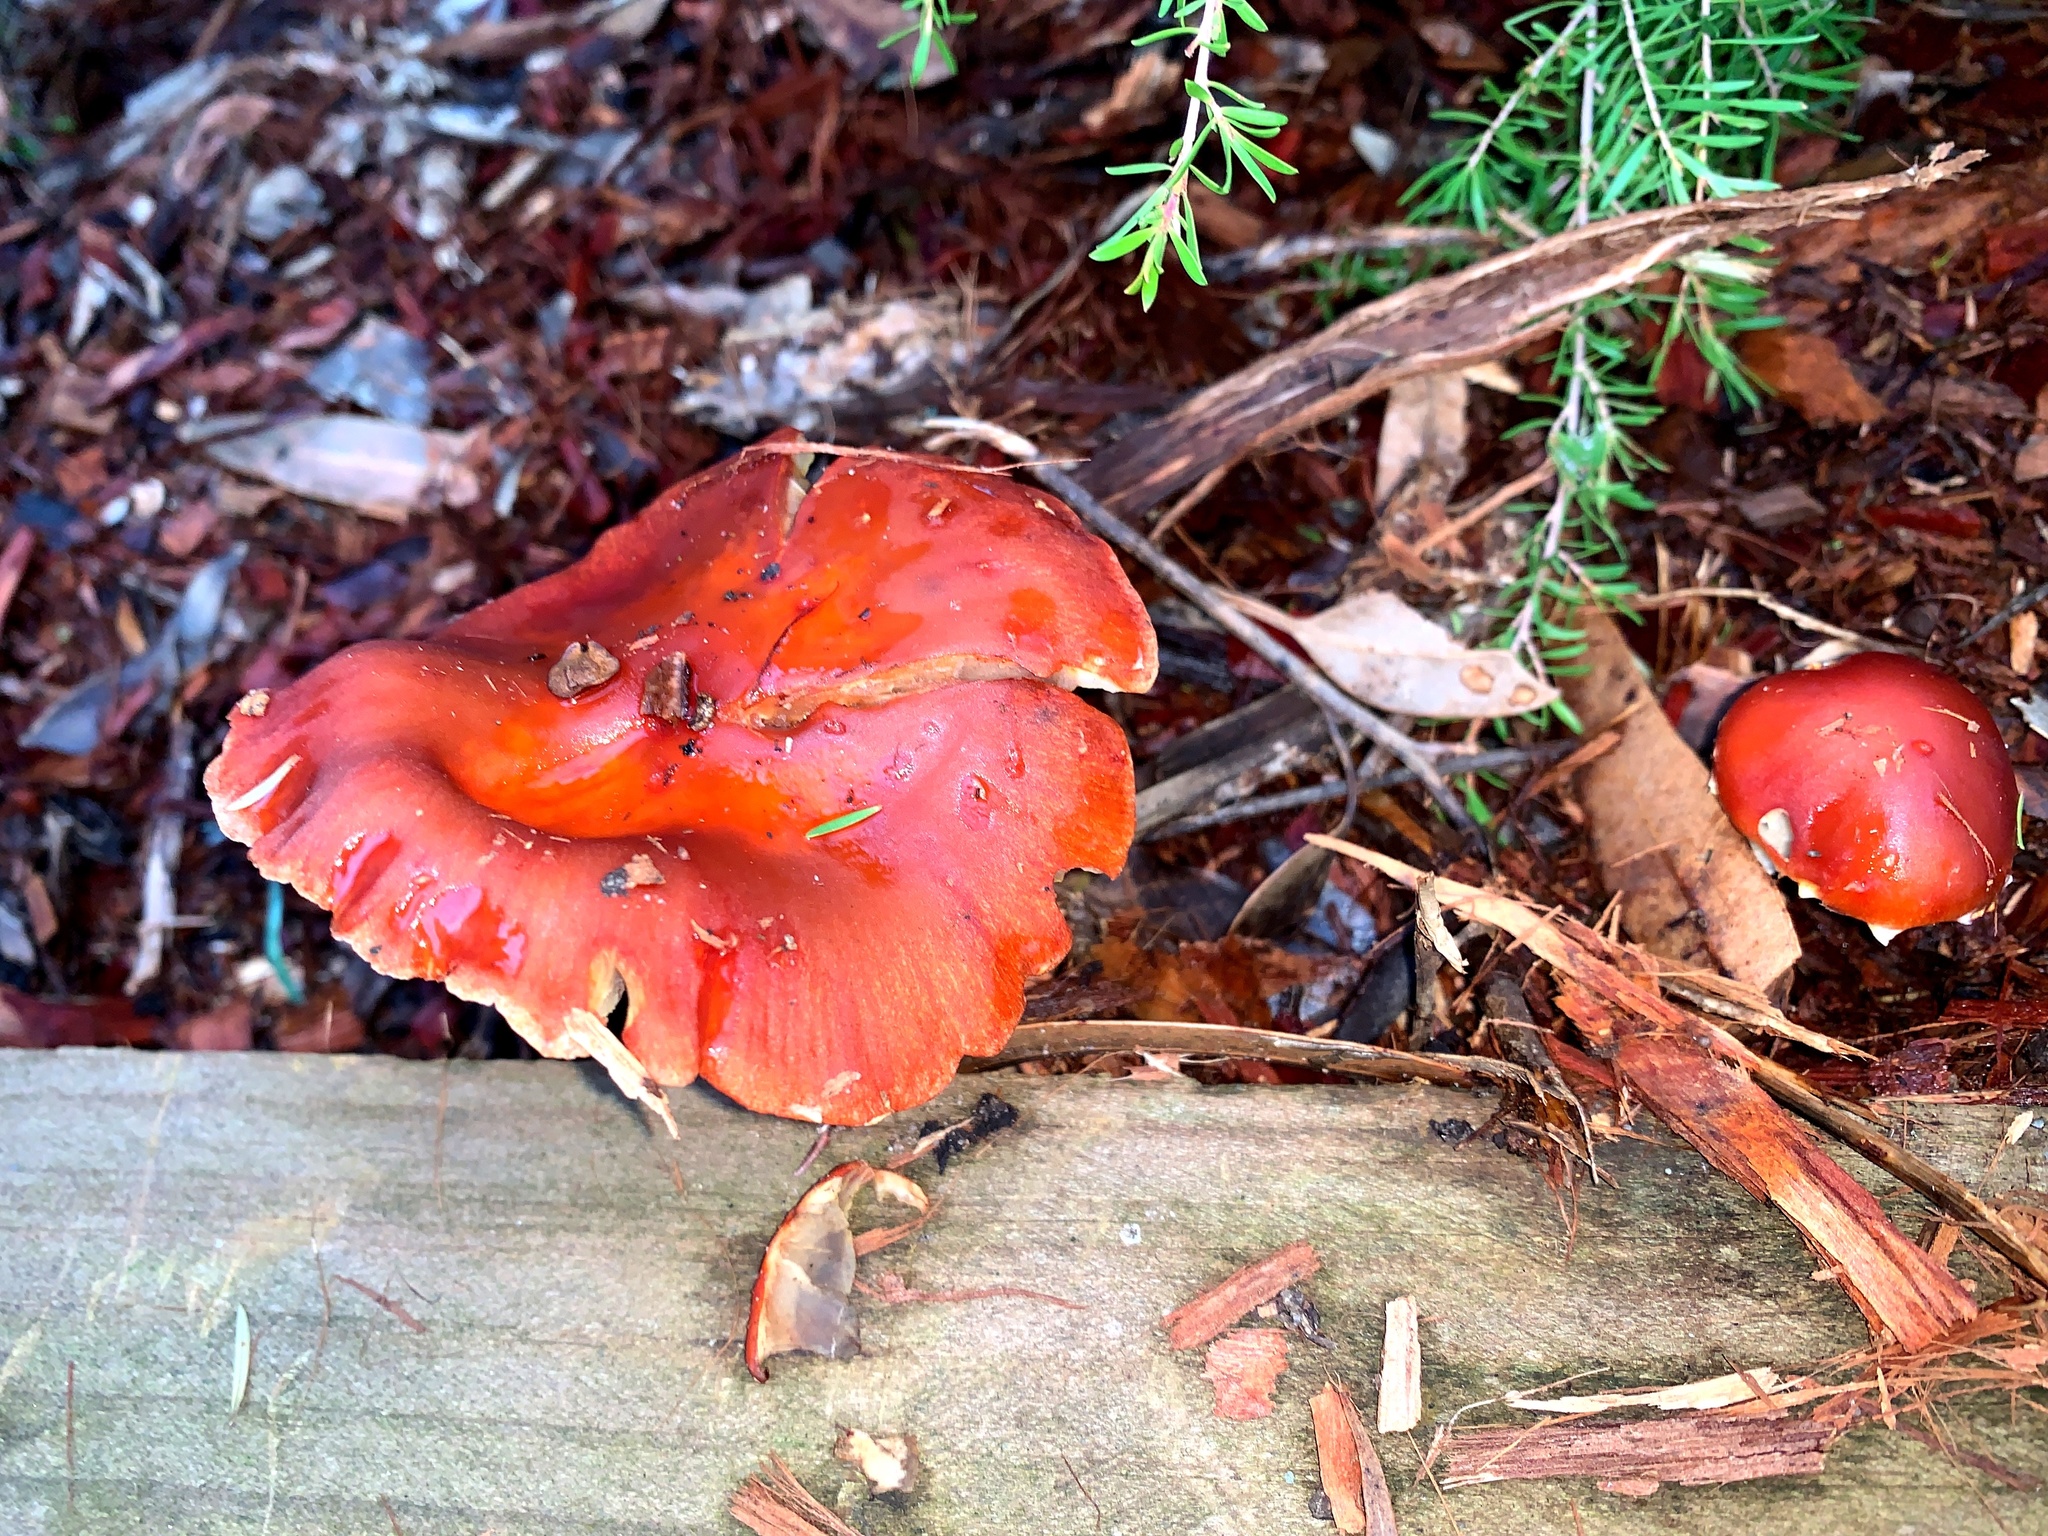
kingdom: Fungi
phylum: Basidiomycota
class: Agaricomycetes
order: Agaricales
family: Strophariaceae
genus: Leratiomyces
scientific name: Leratiomyces ceres
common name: Redlead roundhead
